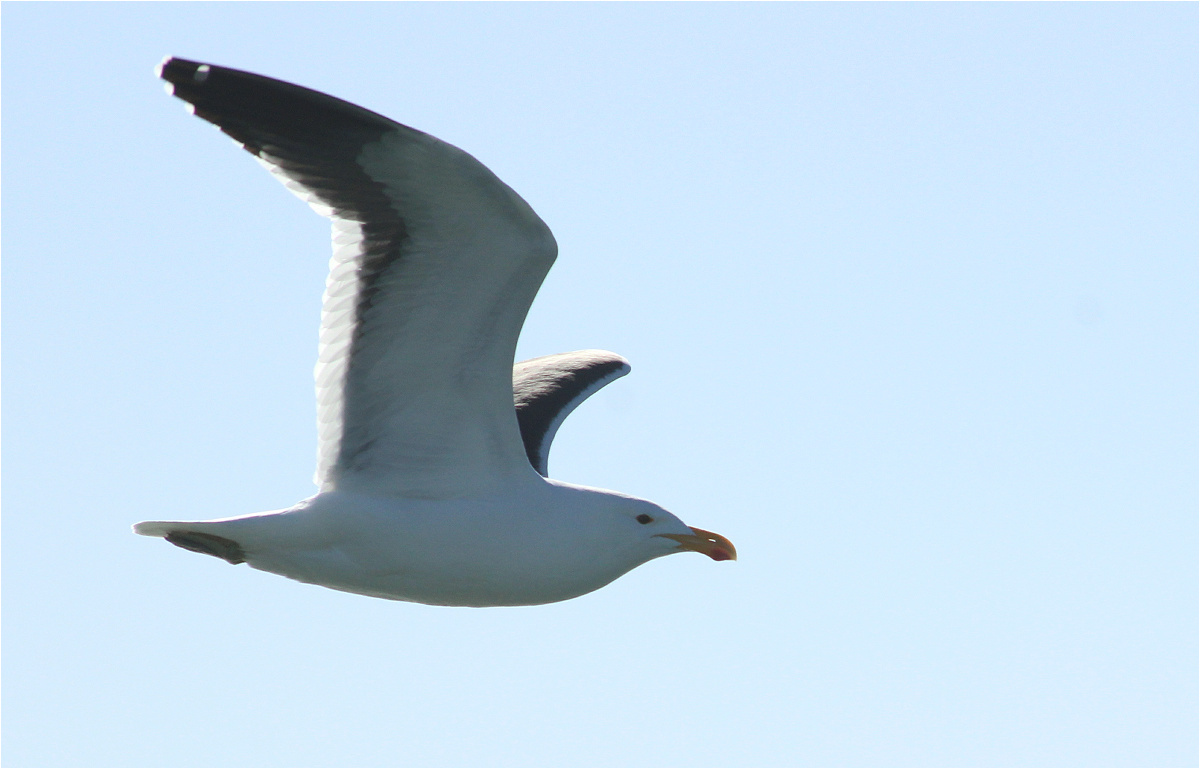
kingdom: Animalia
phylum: Chordata
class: Aves
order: Charadriiformes
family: Laridae
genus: Larus
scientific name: Larus dominicanus
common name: Kelp gull
